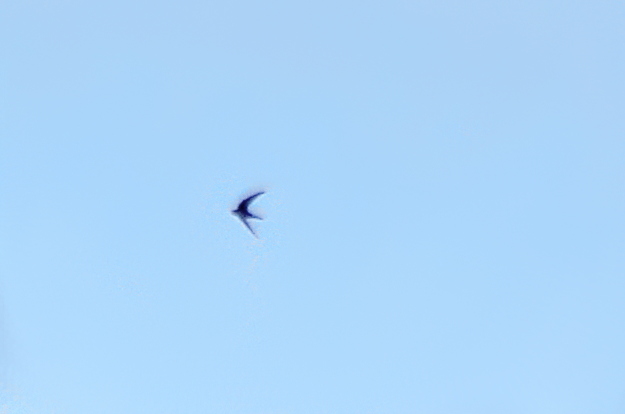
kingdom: Animalia
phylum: Chordata
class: Aves
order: Apodiformes
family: Apodidae
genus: Apus
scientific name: Apus apus
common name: Common swift
